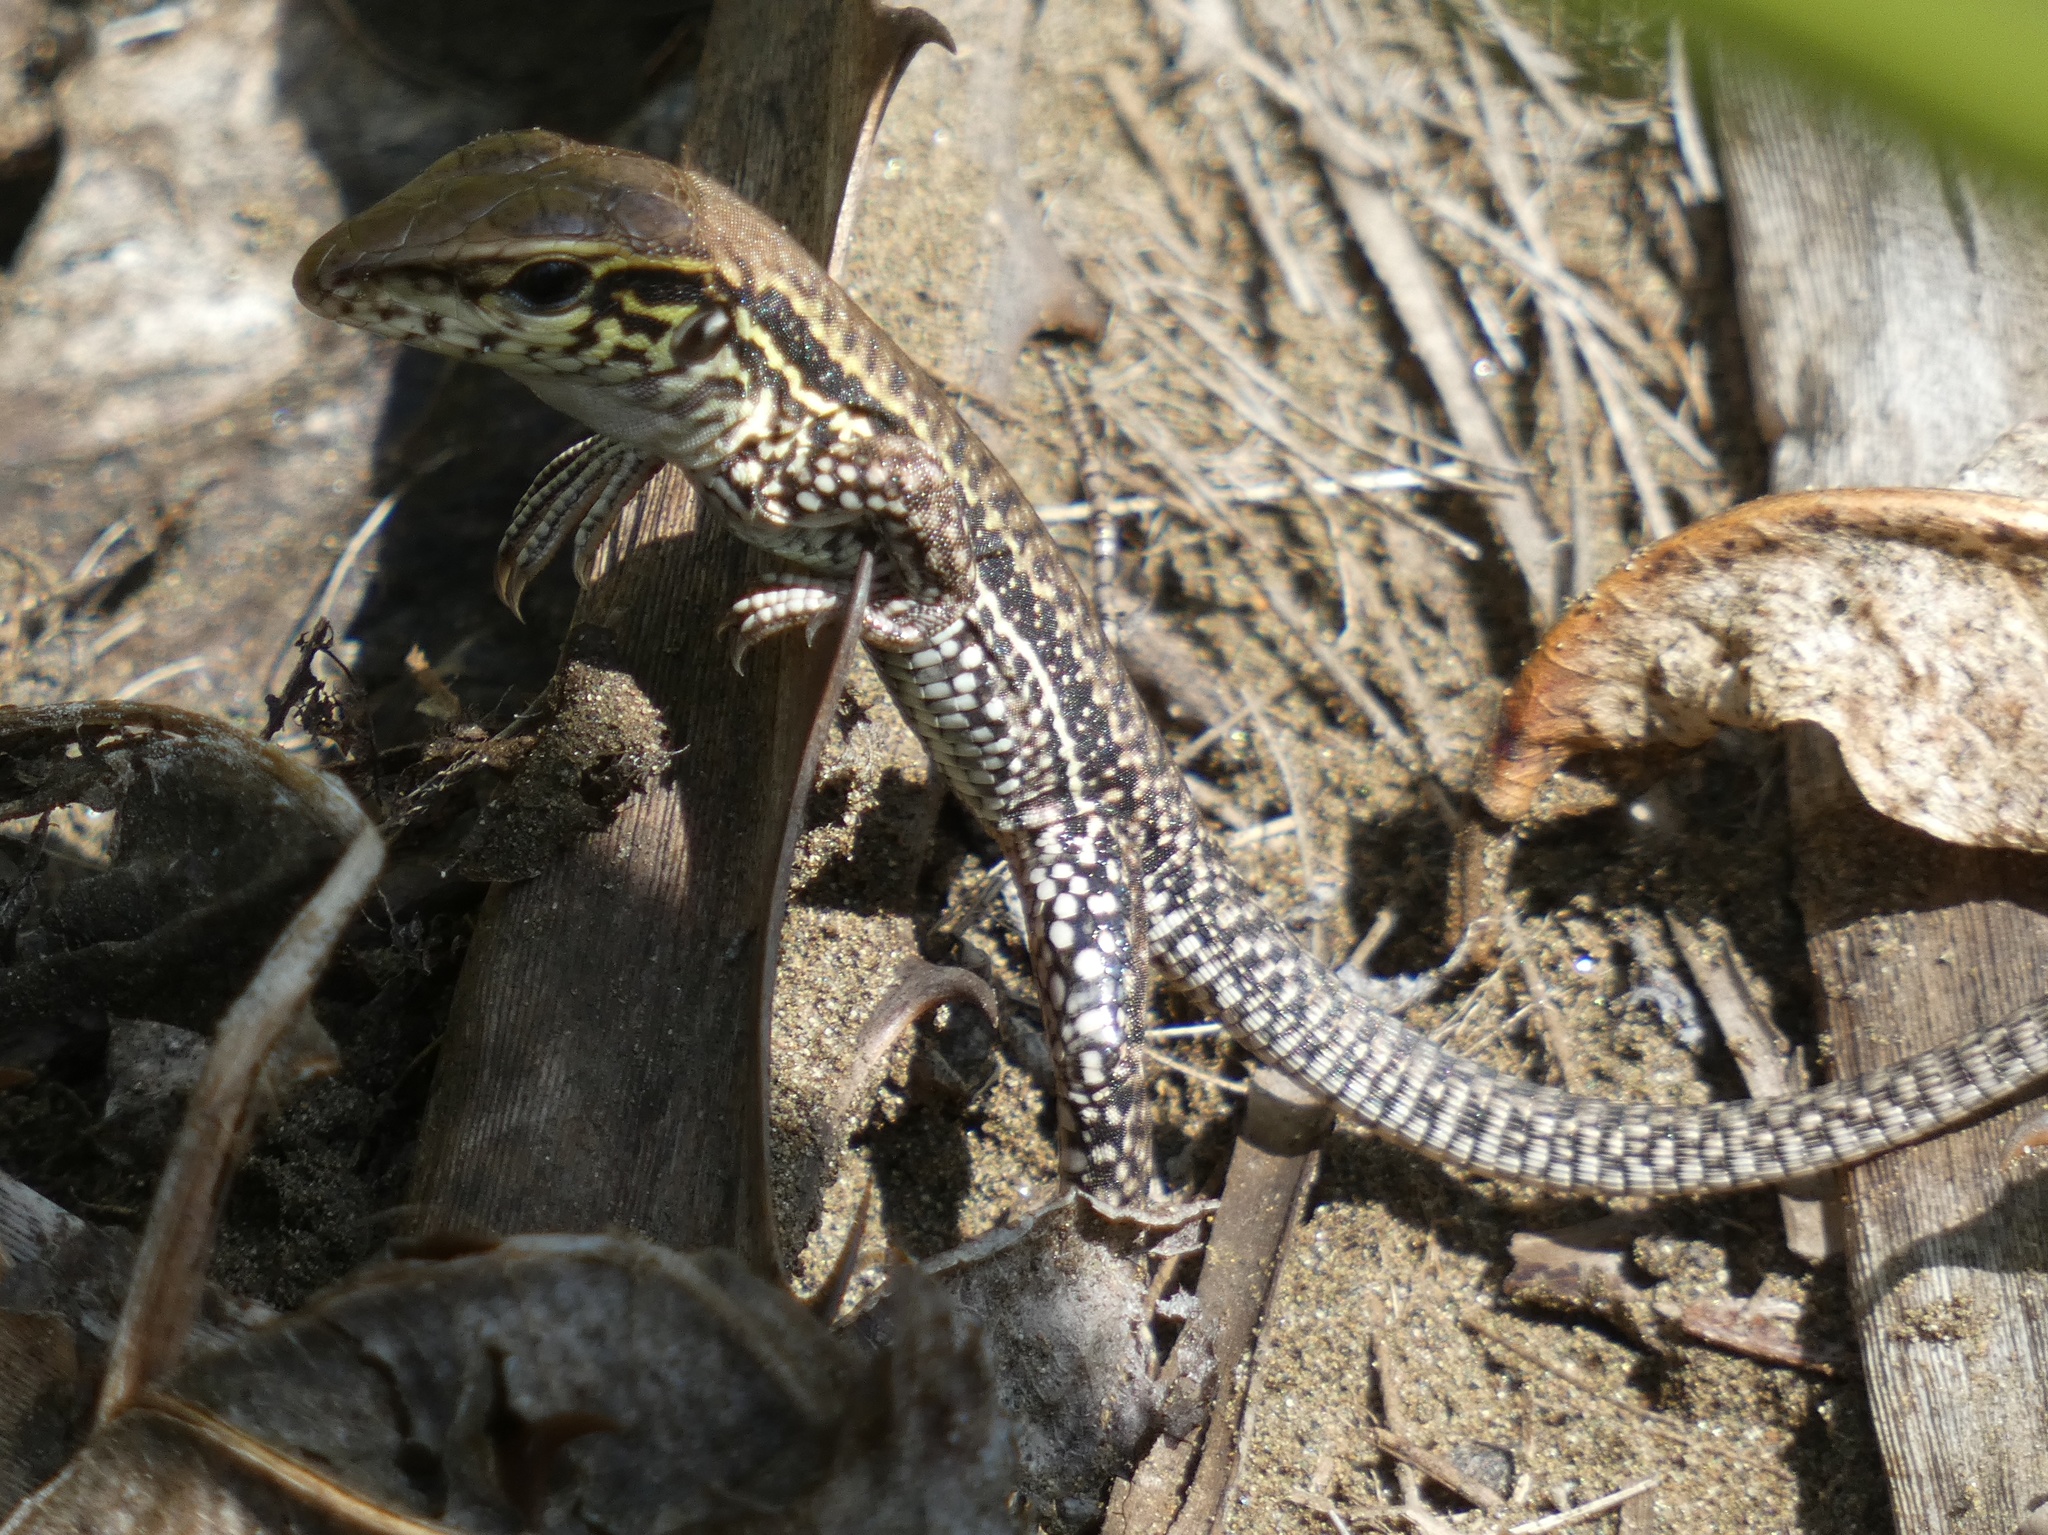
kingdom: Animalia
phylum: Chordata
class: Squamata
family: Teiidae
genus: Ameiva
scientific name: Ameiva praesignis
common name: Giant ameiva
